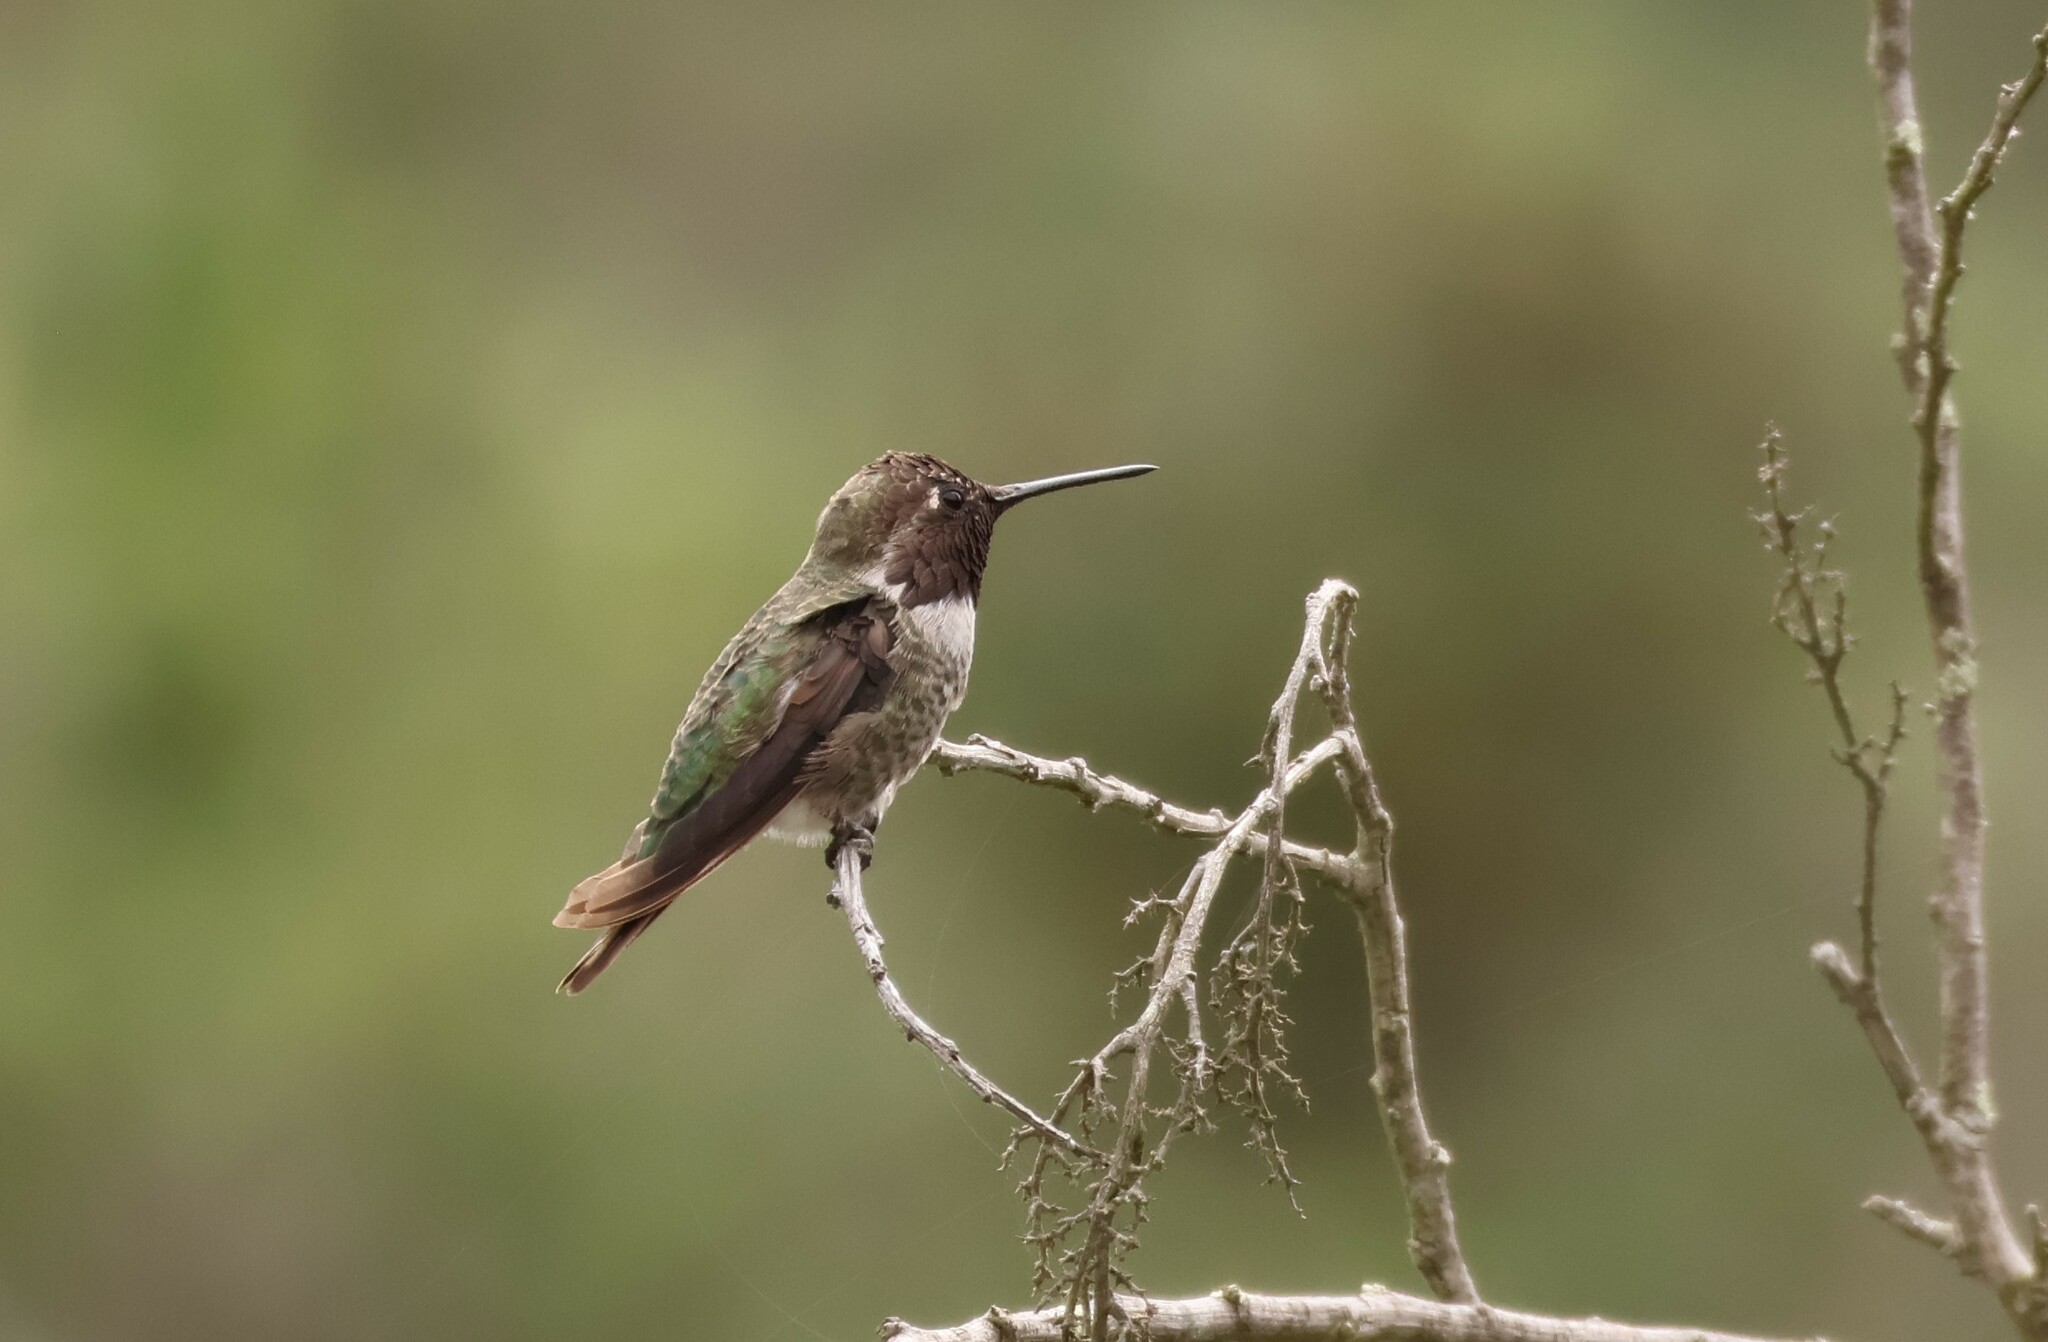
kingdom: Animalia
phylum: Chordata
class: Aves
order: Apodiformes
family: Trochilidae
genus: Calypte
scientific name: Calypte anna
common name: Anna's hummingbird
